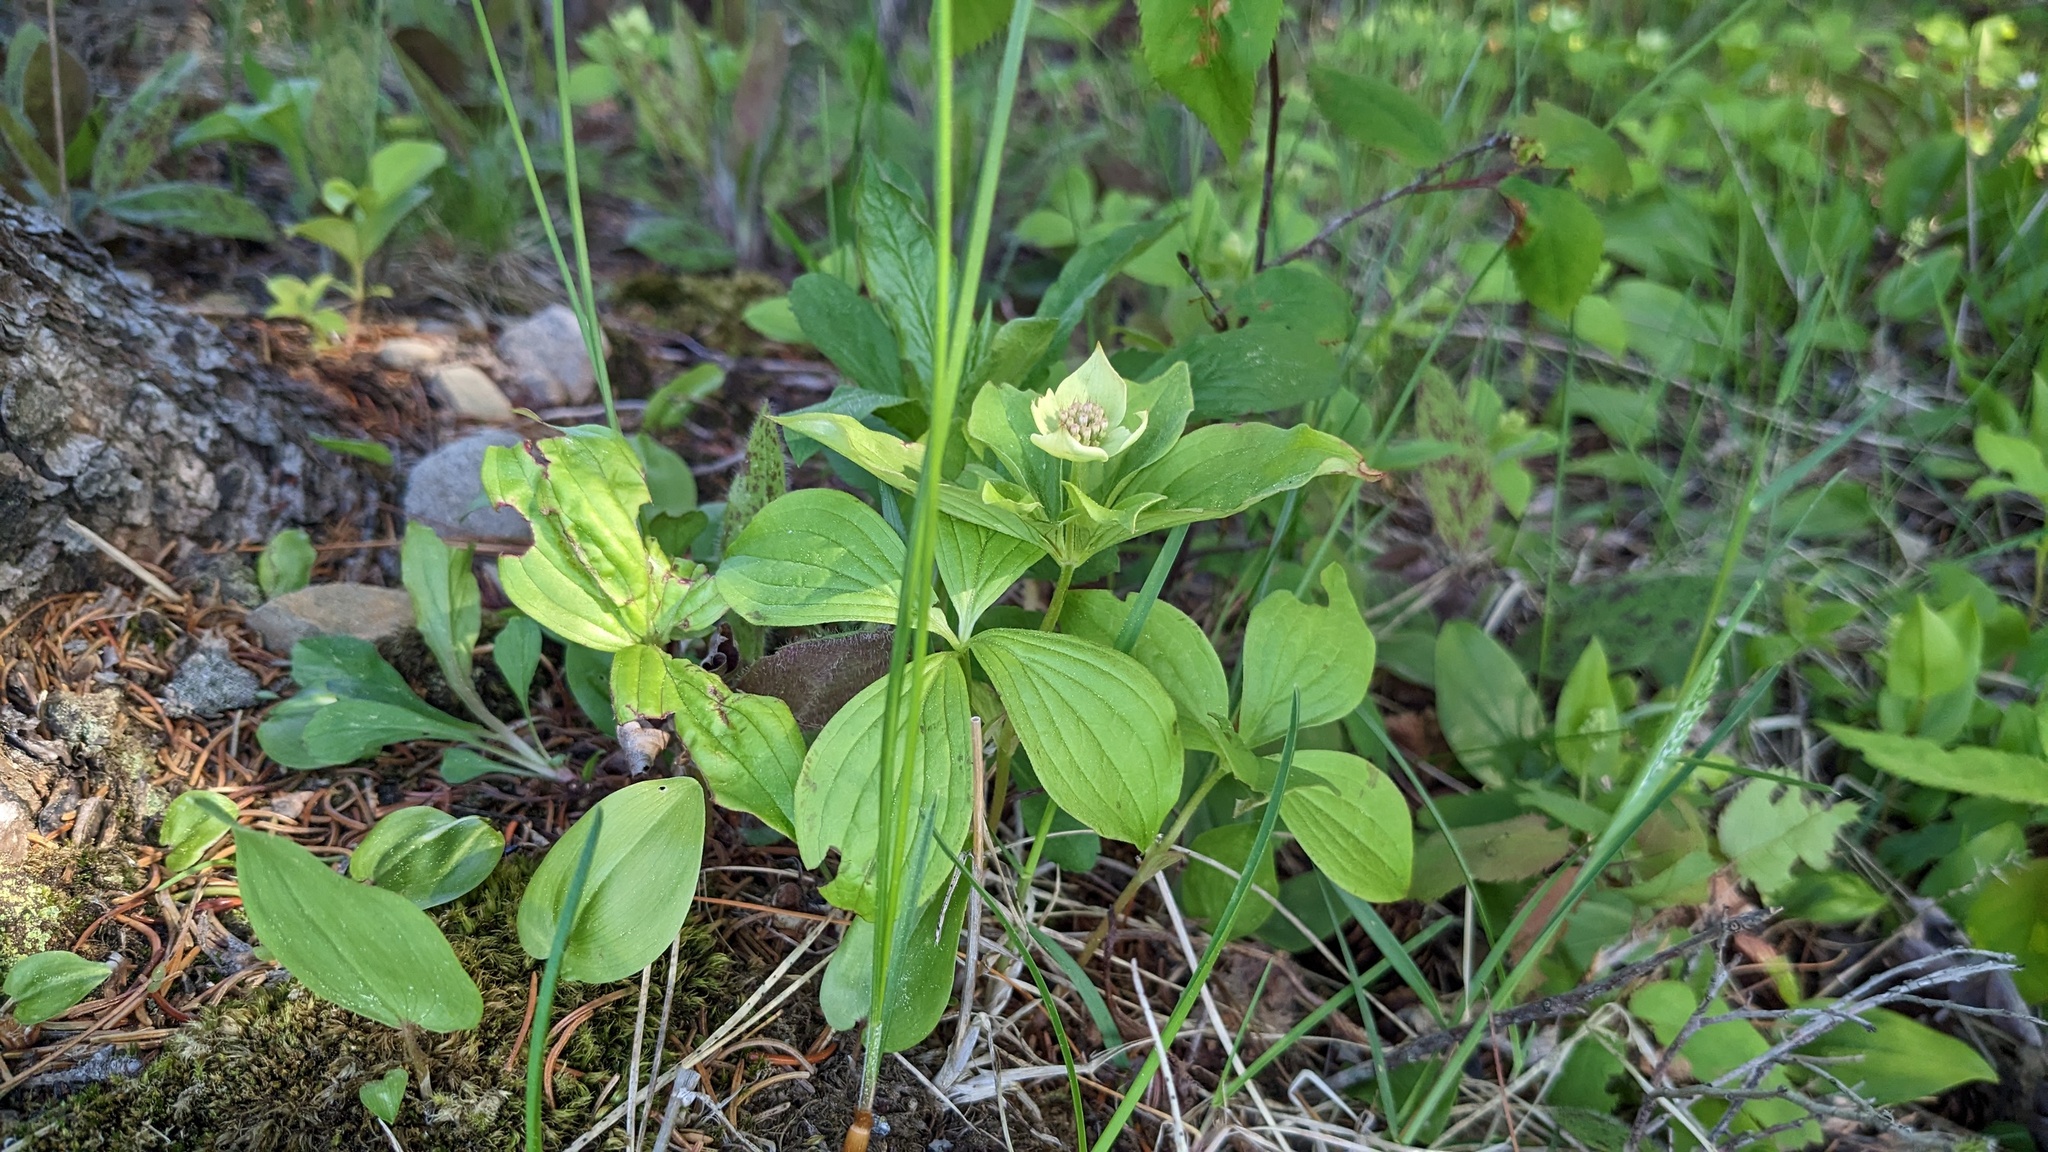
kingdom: Plantae
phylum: Tracheophyta
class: Magnoliopsida
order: Cornales
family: Cornaceae
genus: Cornus
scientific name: Cornus canadensis
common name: Creeping dogwood
